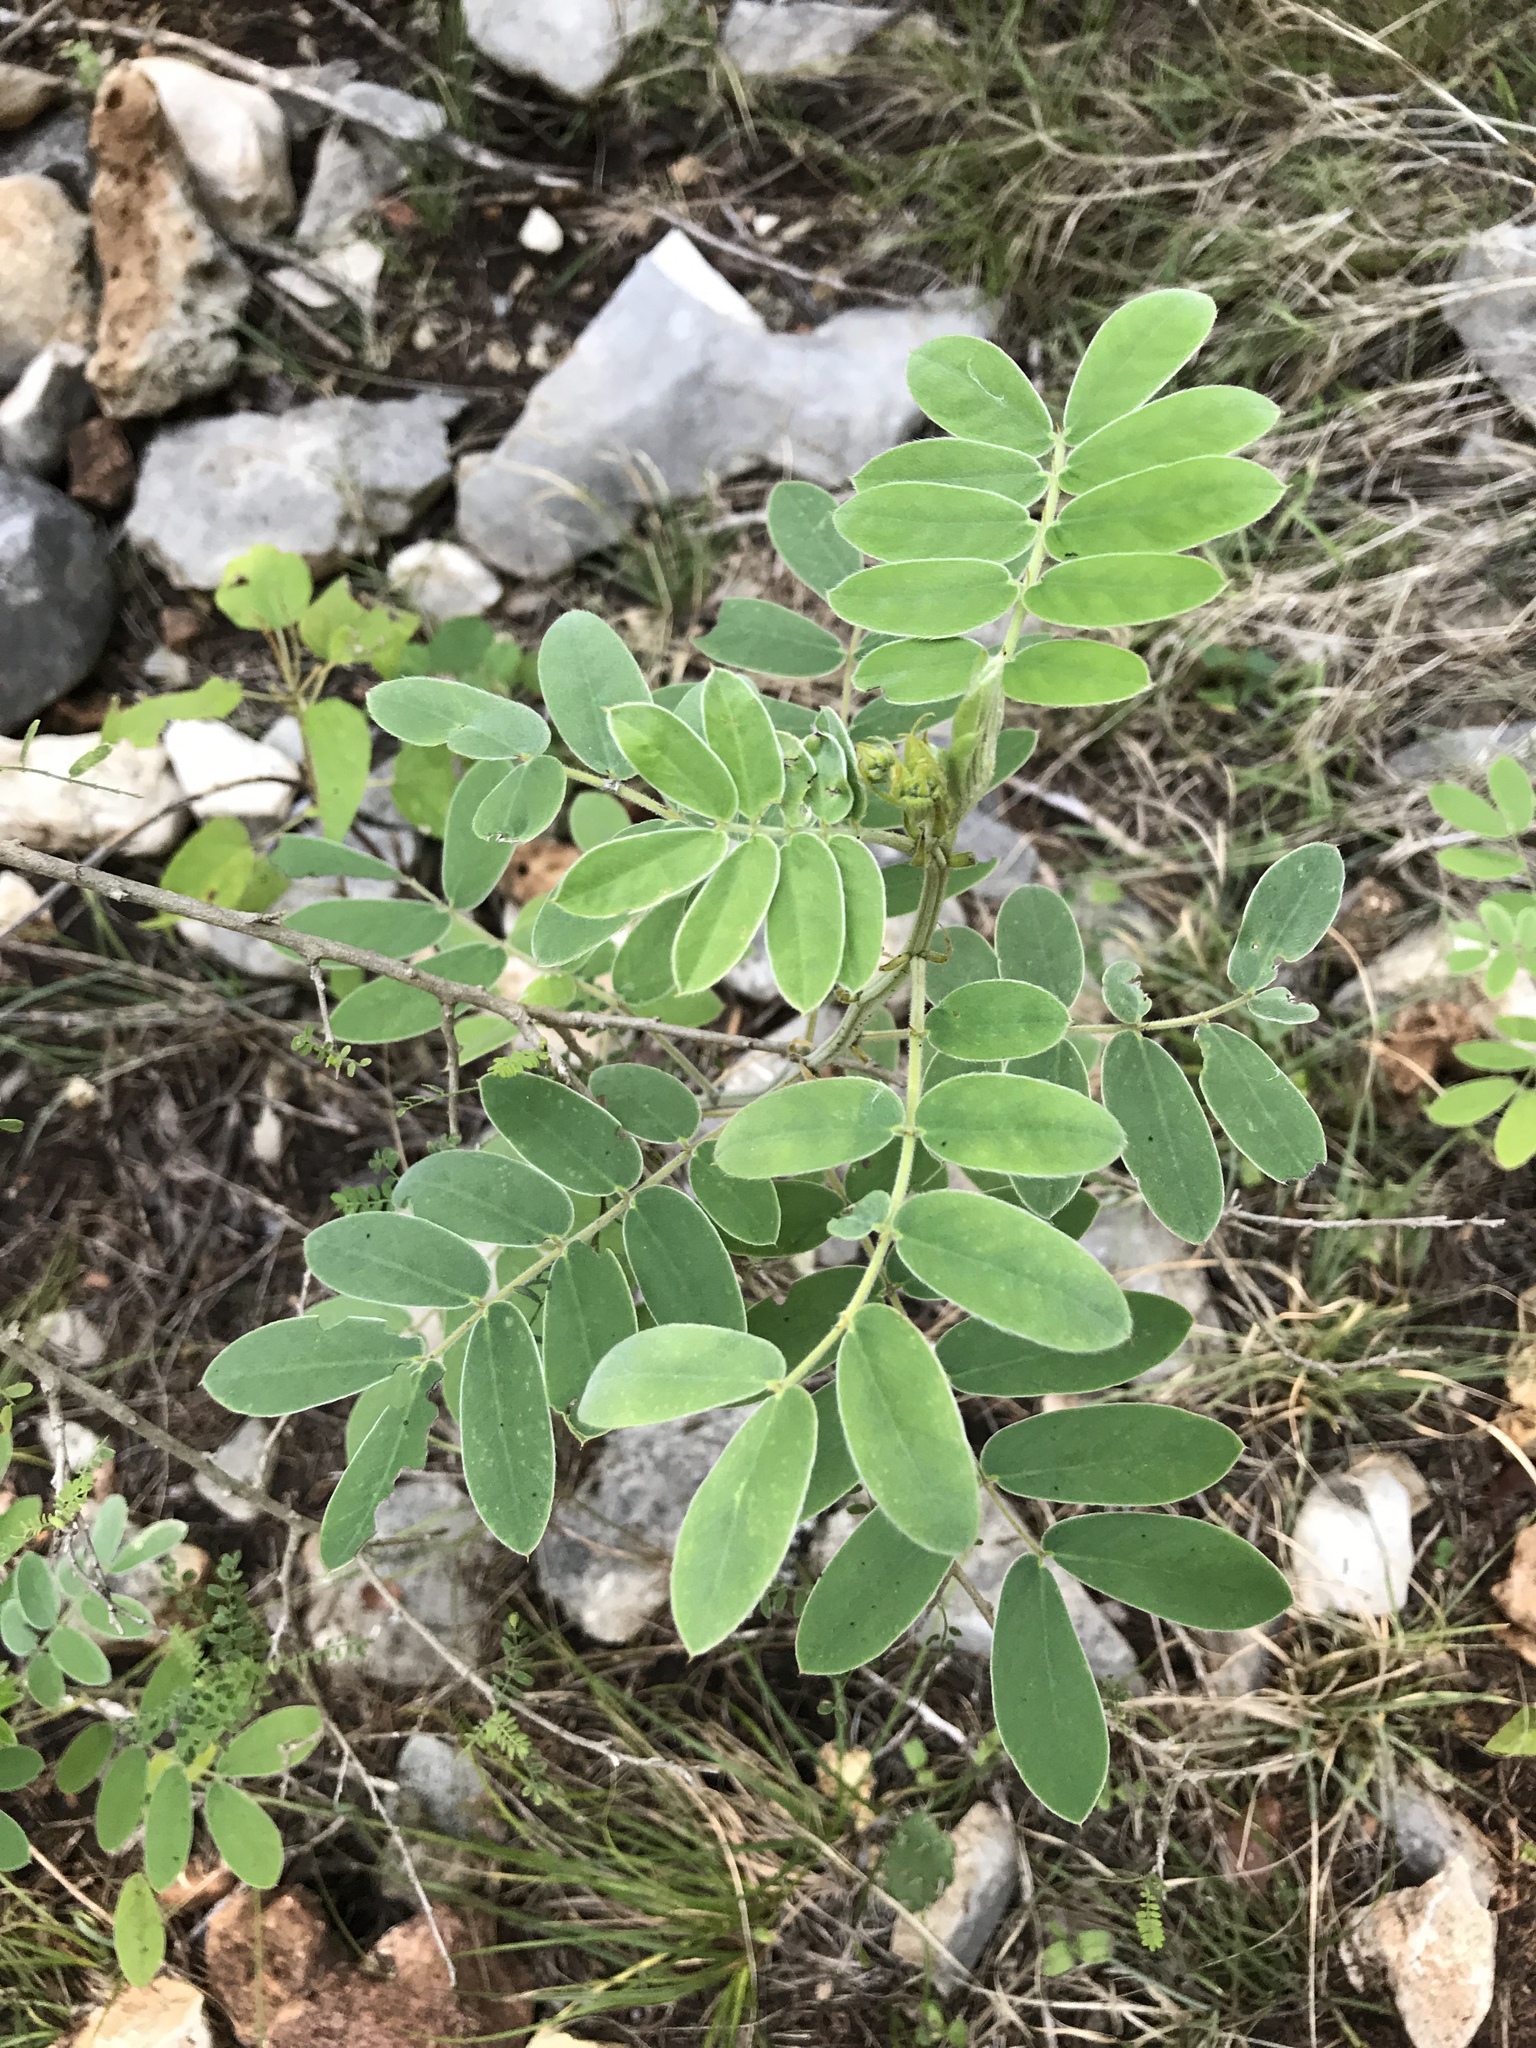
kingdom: Plantae
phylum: Tracheophyta
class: Magnoliopsida
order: Fabales
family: Fabaceae
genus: Senna
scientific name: Senna lindheimeriana
